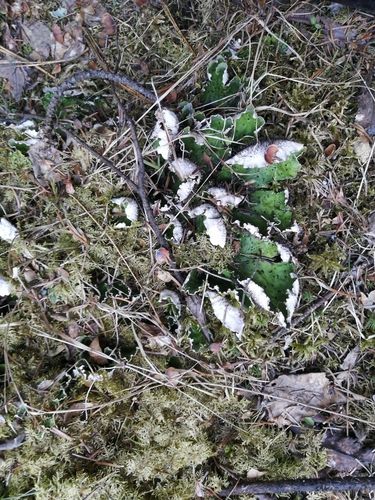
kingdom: Fungi
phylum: Ascomycota
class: Lecanoromycetes
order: Peltigerales
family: Peltigeraceae
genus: Peltigera
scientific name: Peltigera aphthosa
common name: Common freckle pelt lichen
